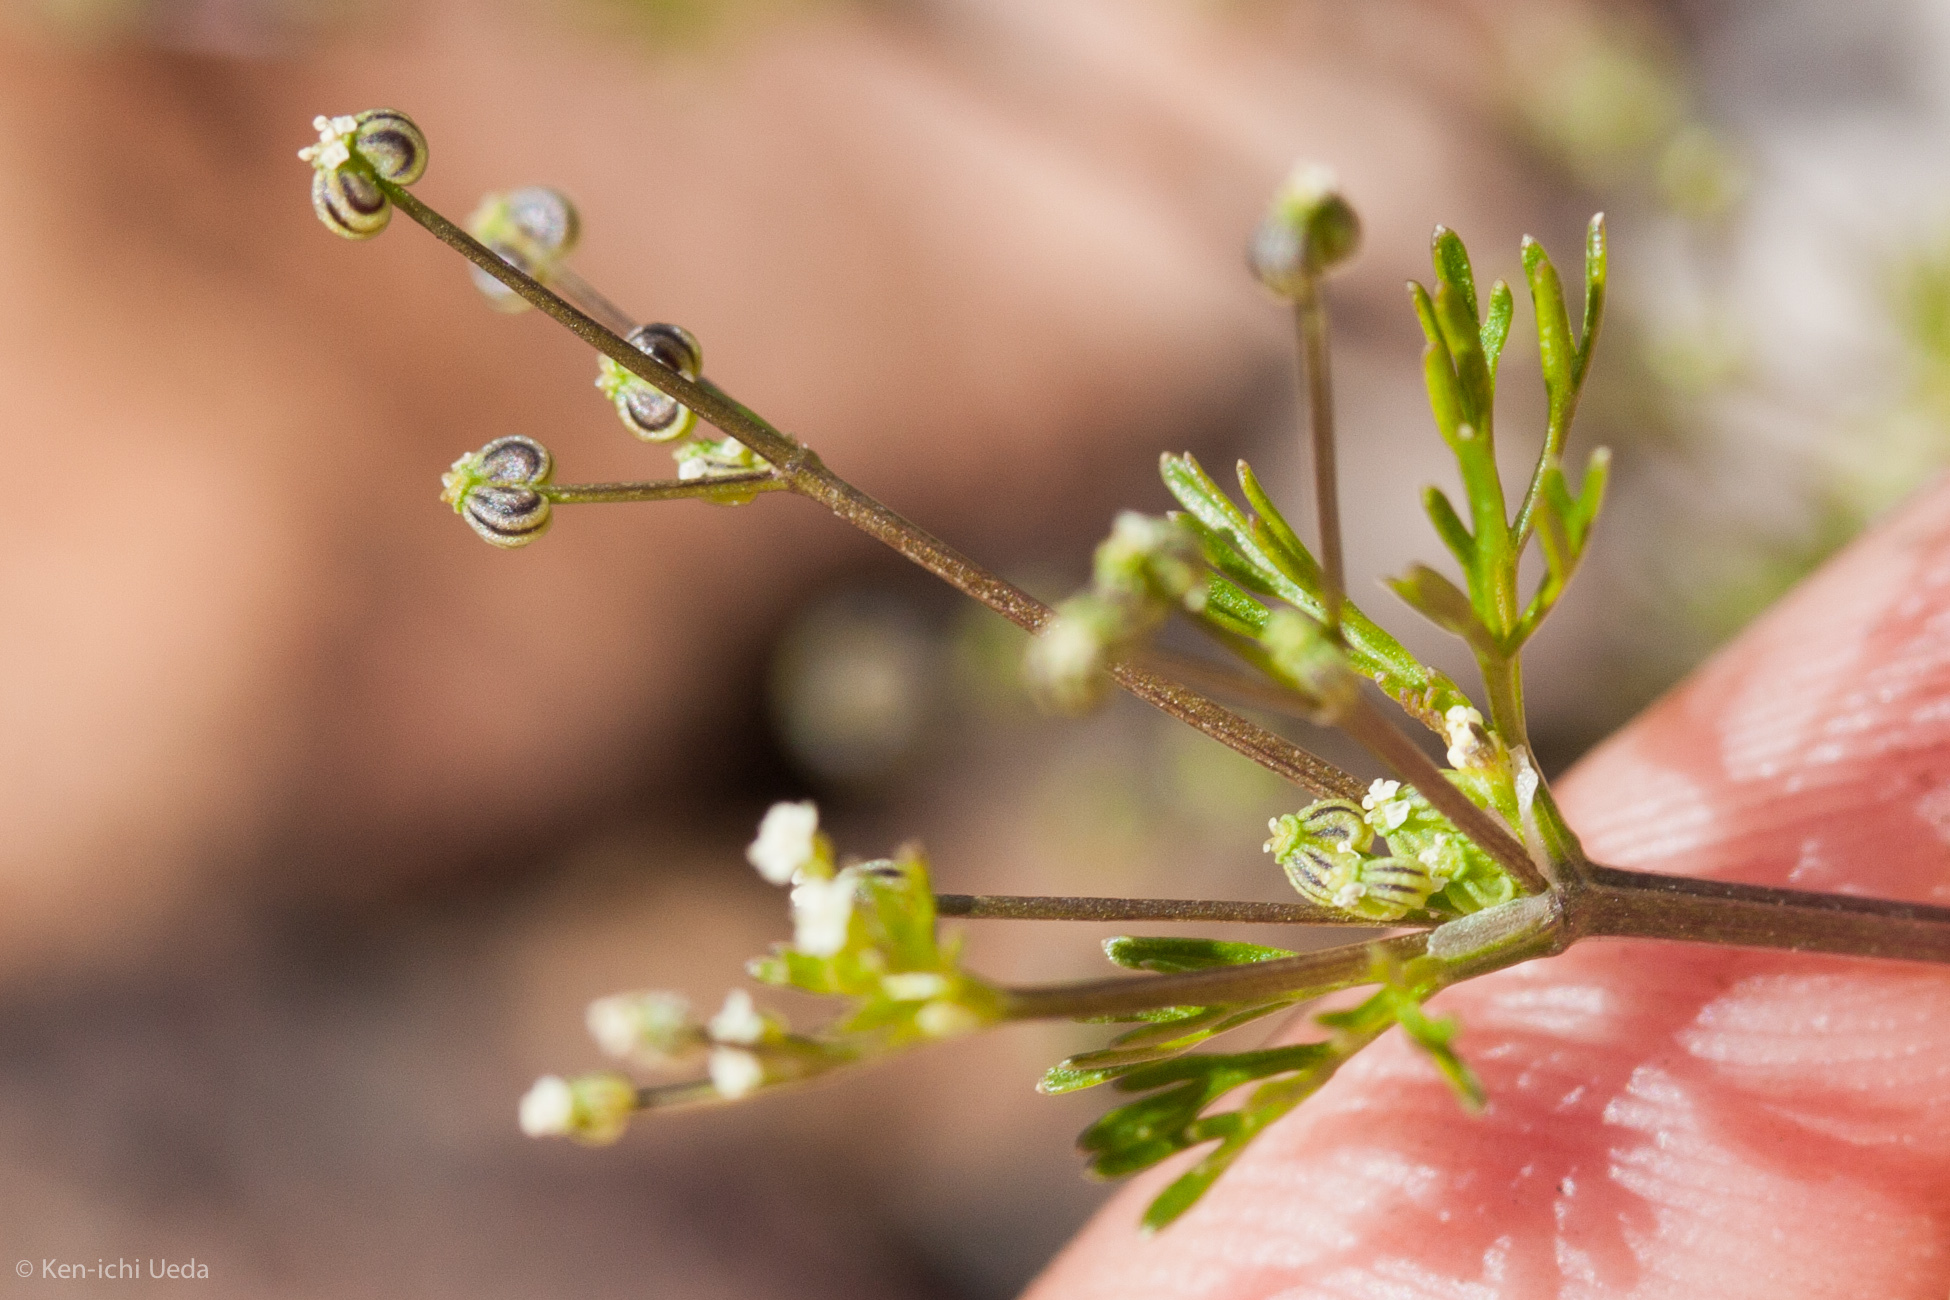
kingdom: Plantae
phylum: Tracheophyta
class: Magnoliopsida
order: Apiales
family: Apiaceae
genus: Apiastrum
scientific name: Apiastrum angustifolium
